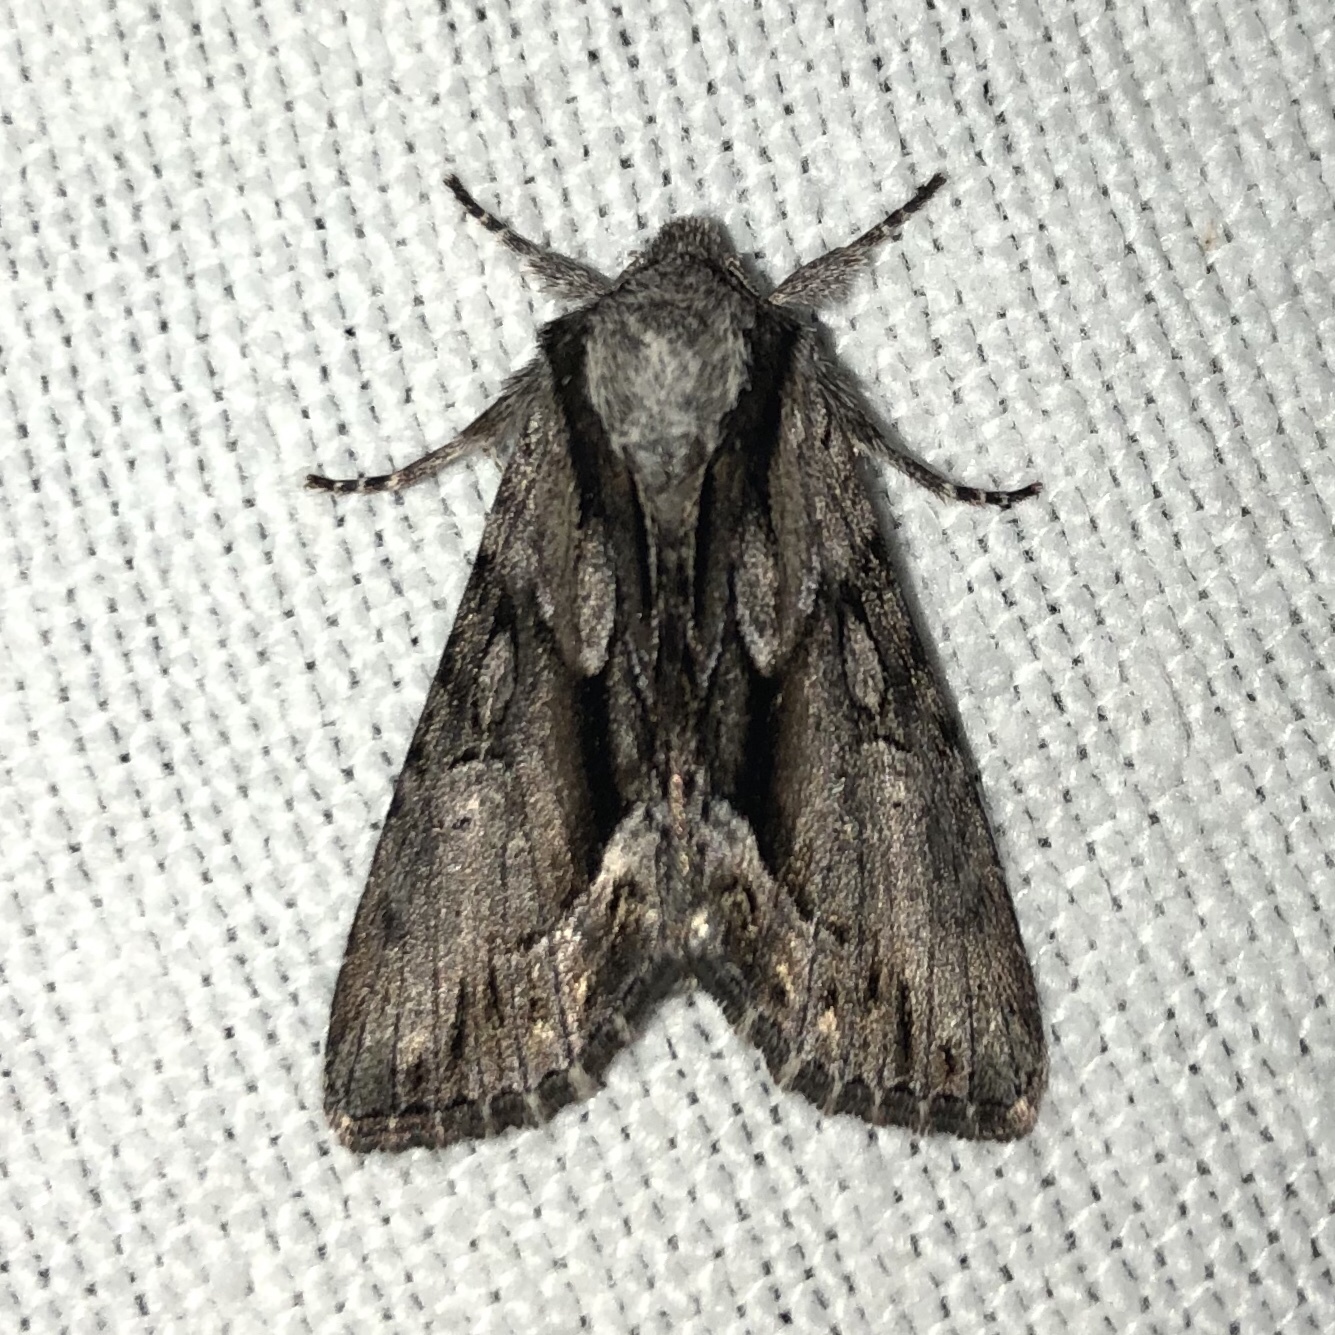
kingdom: Animalia
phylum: Arthropoda
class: Insecta
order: Lepidoptera
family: Noctuidae
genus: Hyppa
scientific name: Hyppa xylinoides
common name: Common hyppa moth
